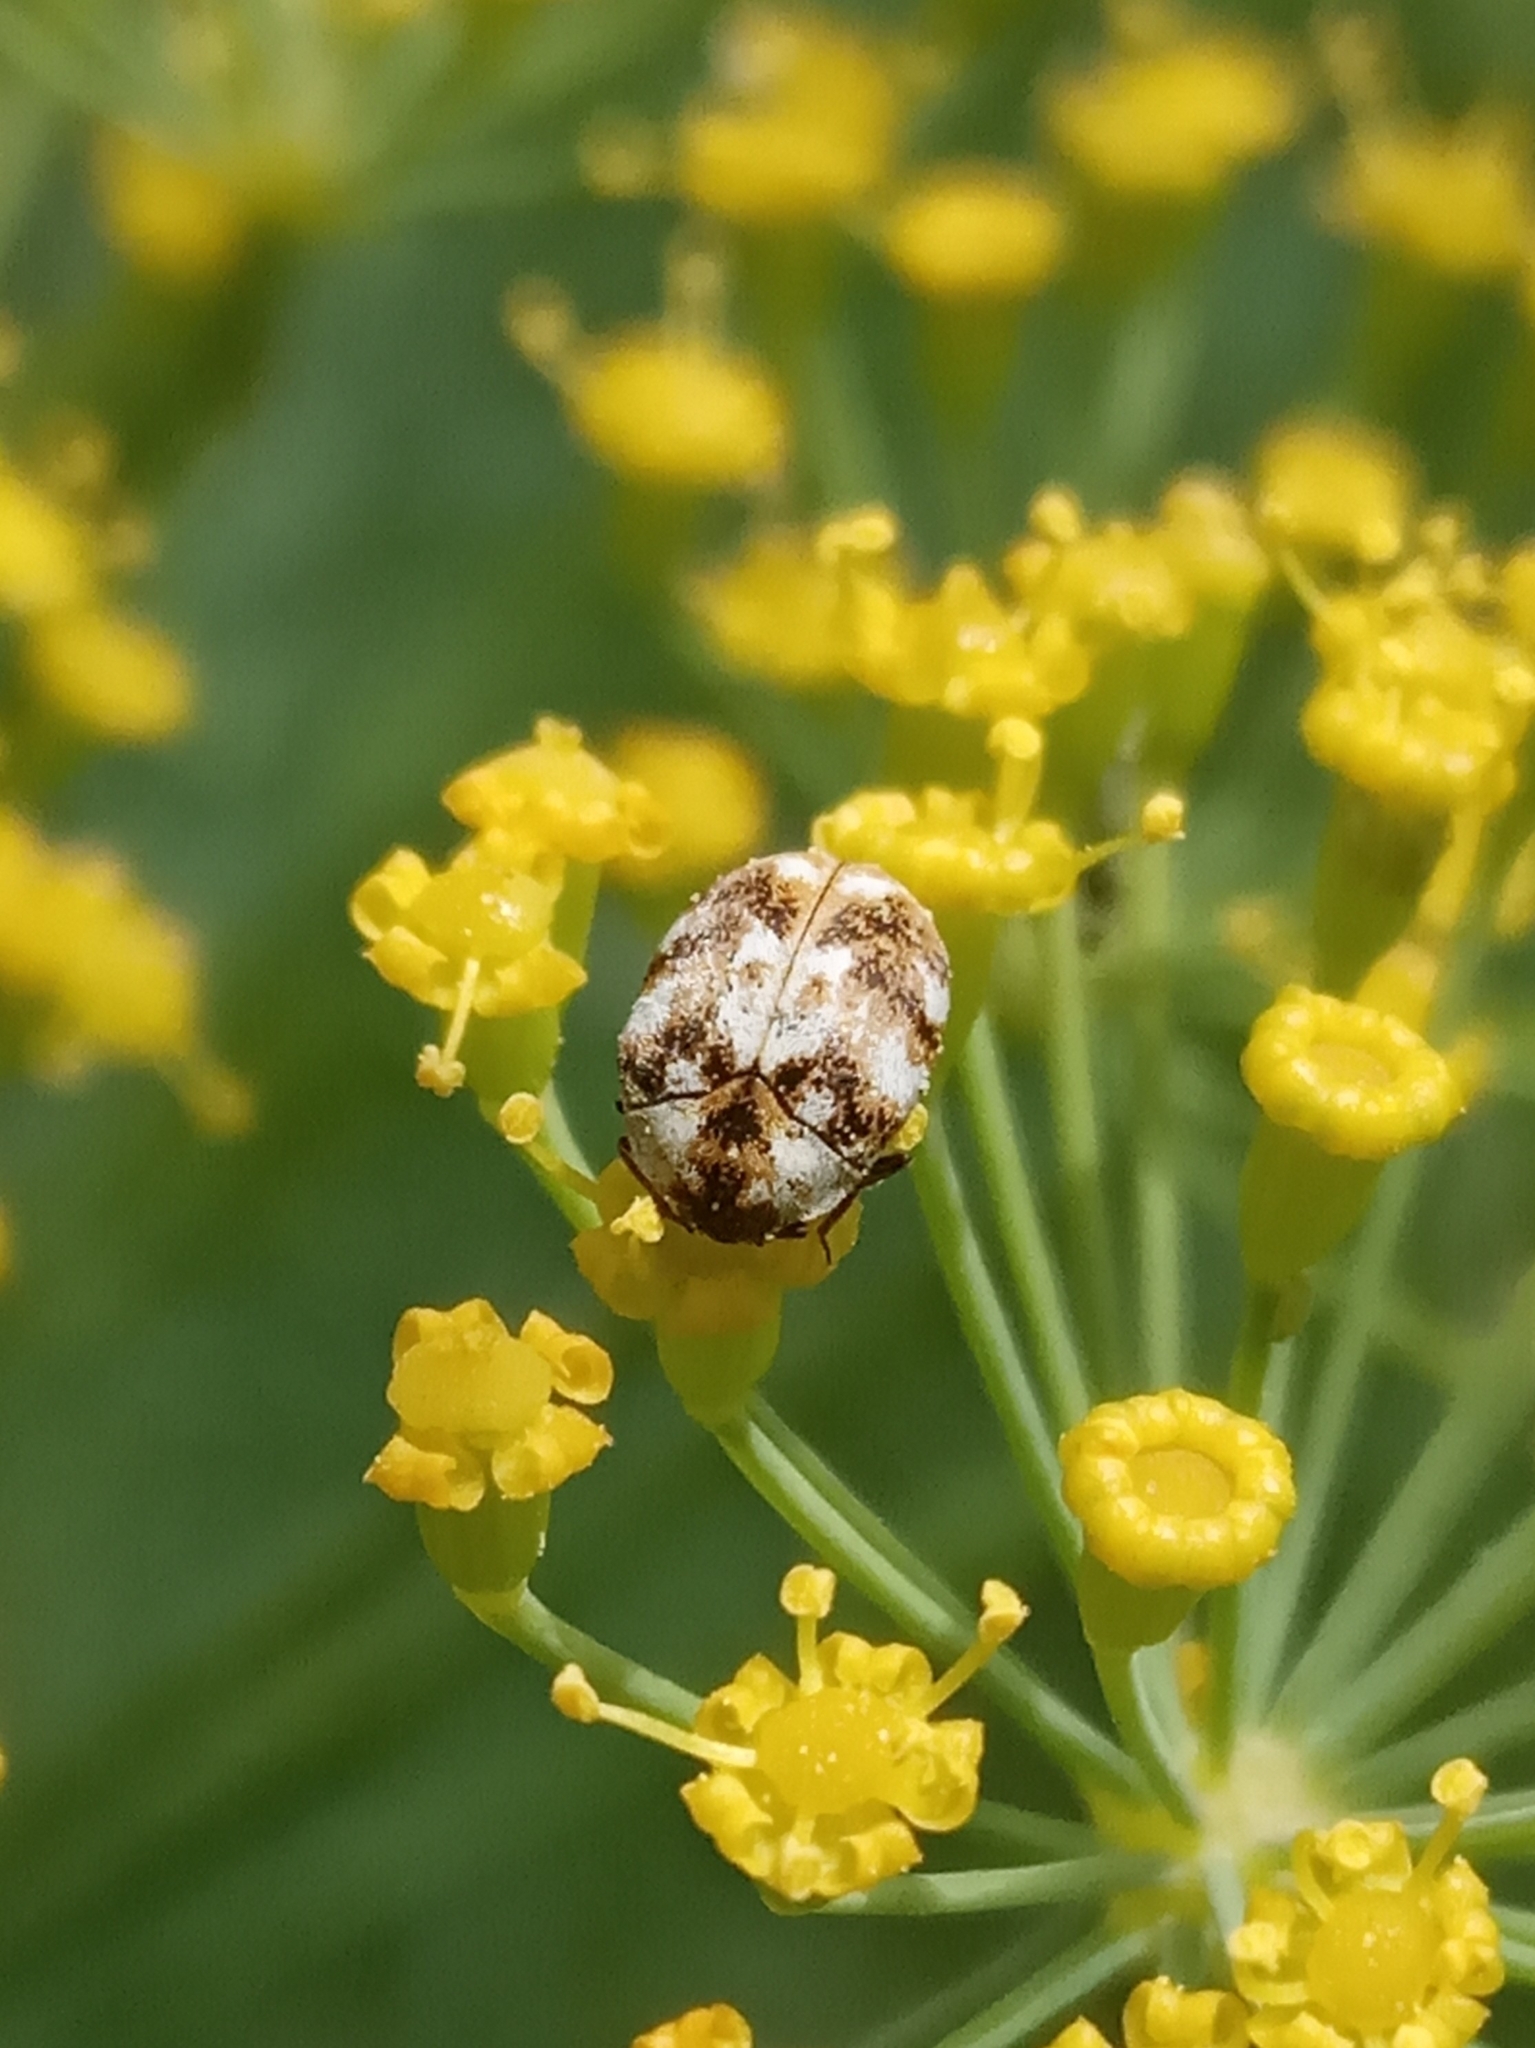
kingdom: Animalia
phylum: Arthropoda
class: Insecta
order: Coleoptera
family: Dermestidae
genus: Anthrenus
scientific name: Anthrenus picturatus
